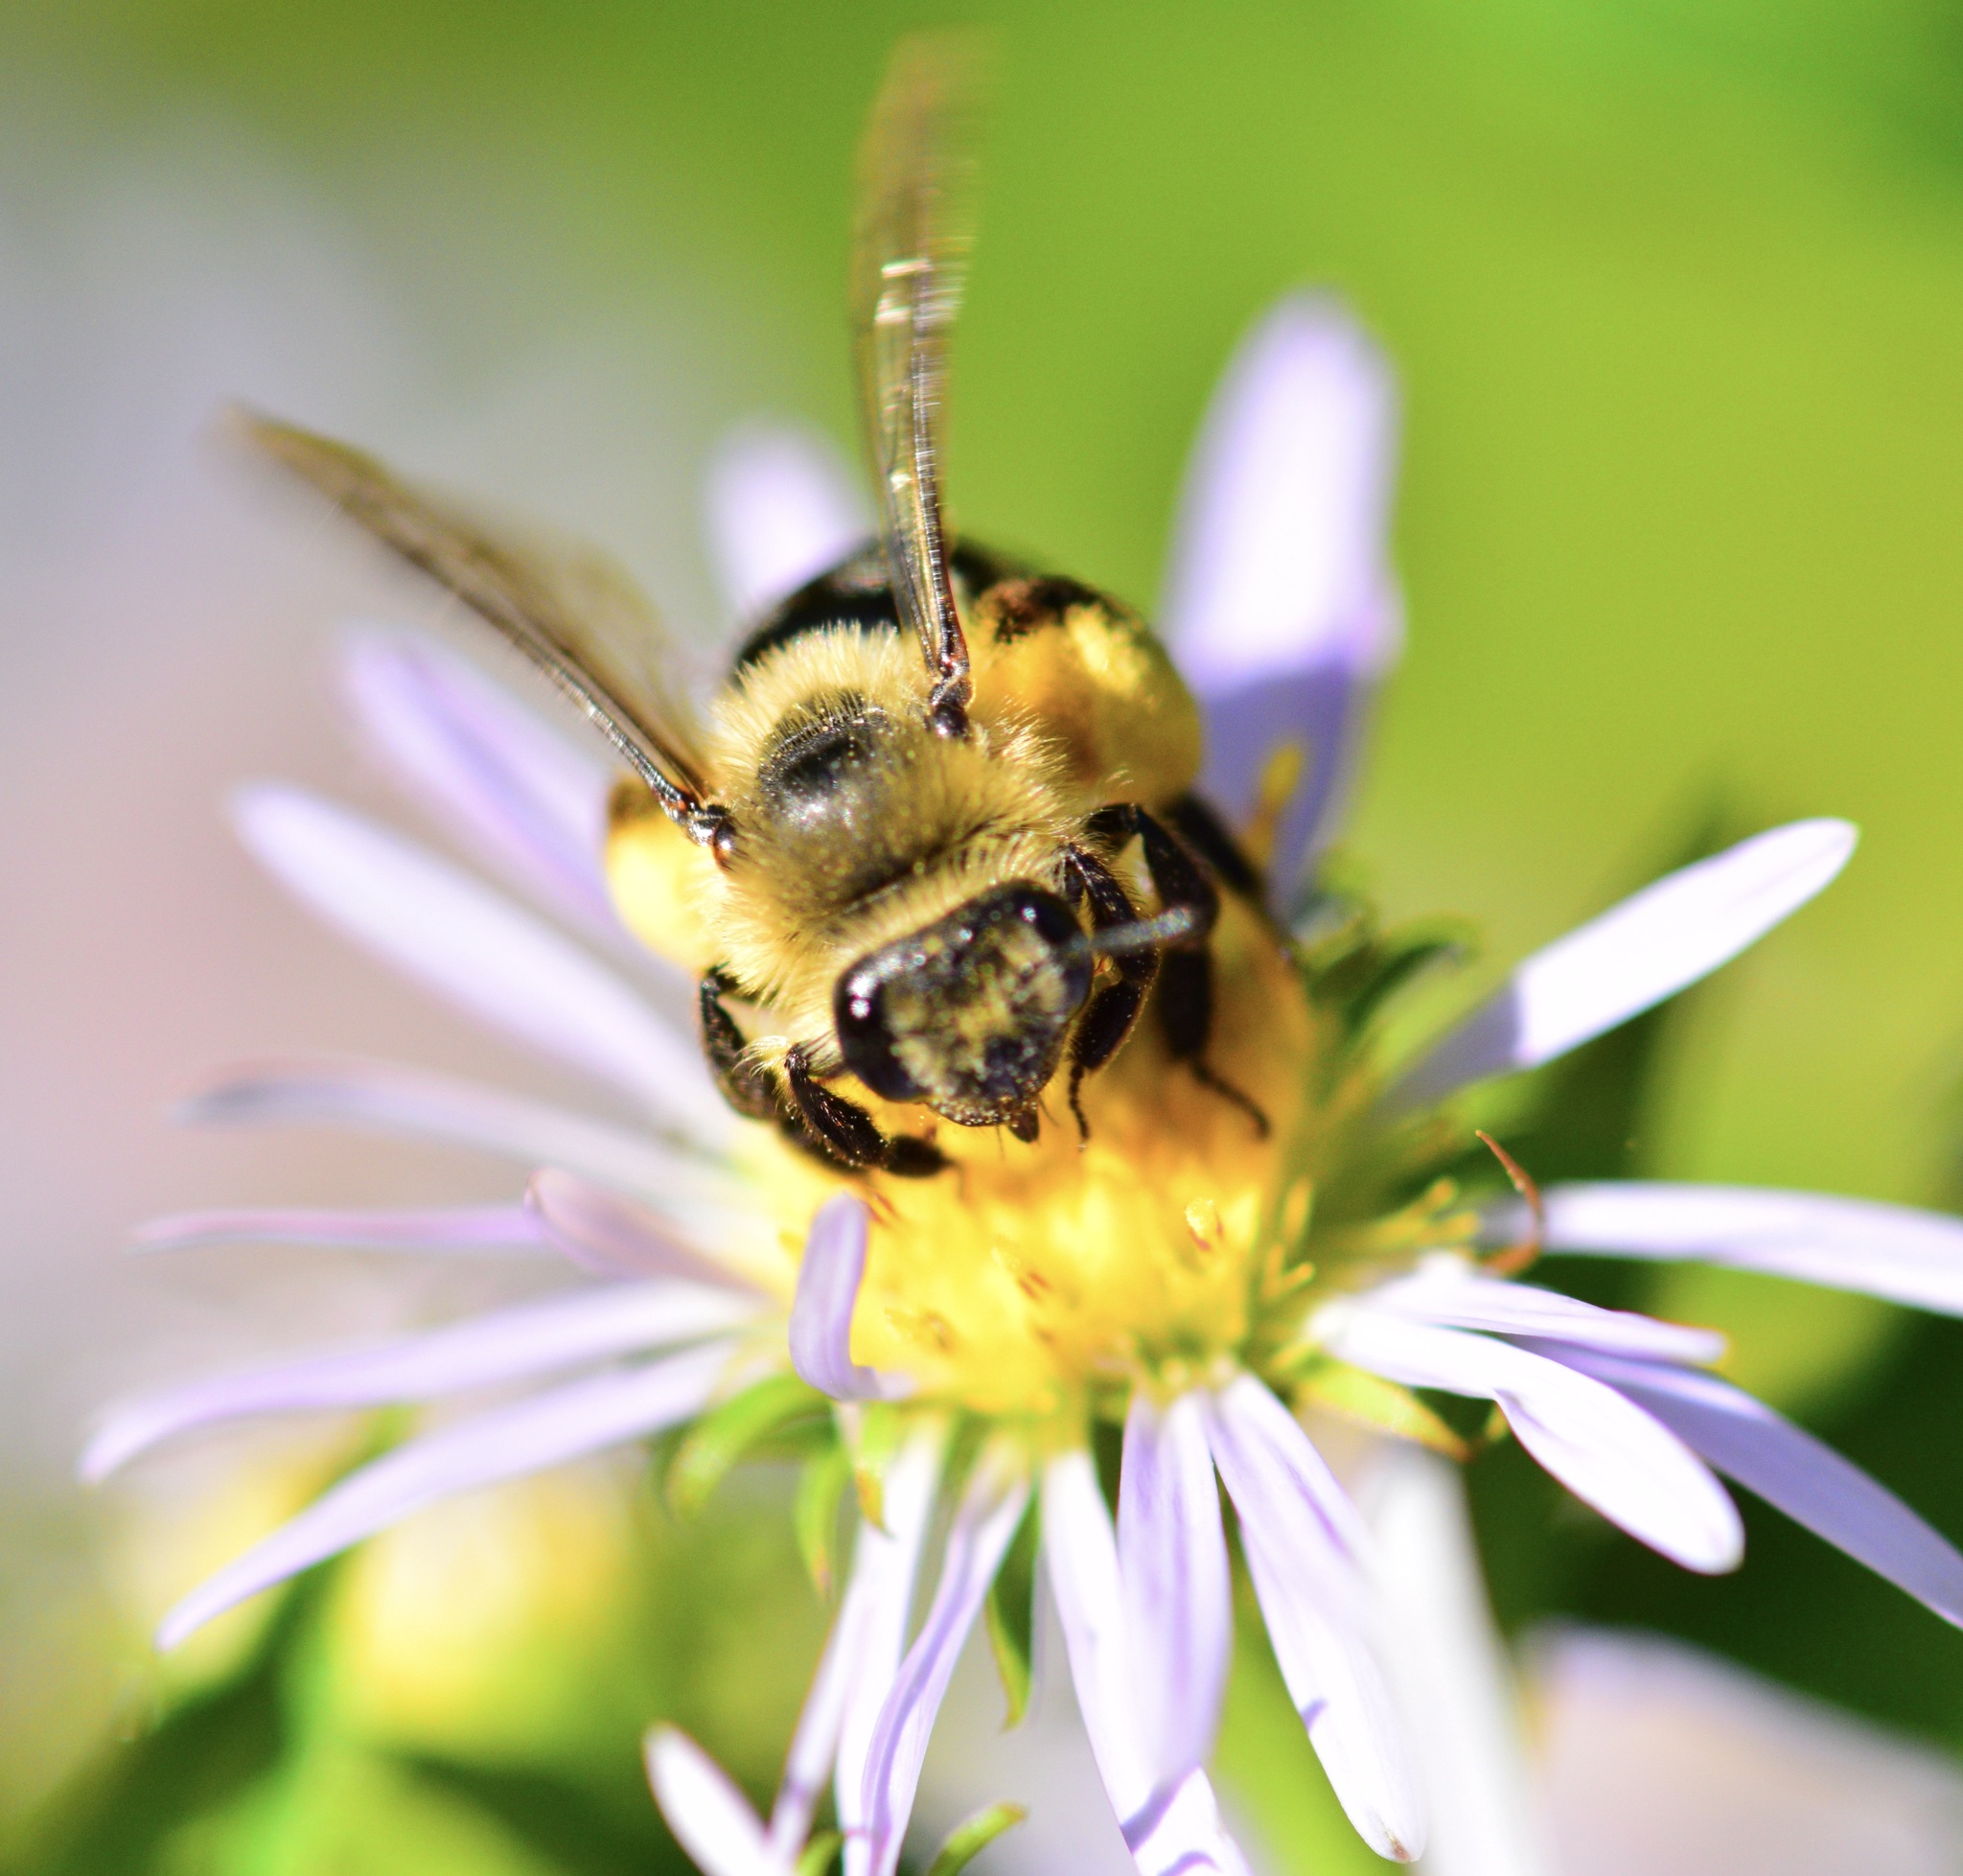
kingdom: Animalia
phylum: Arthropoda
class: Insecta
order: Hymenoptera
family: Andrenidae
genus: Andrena
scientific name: Andrena asteris
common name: Aster mining bee
